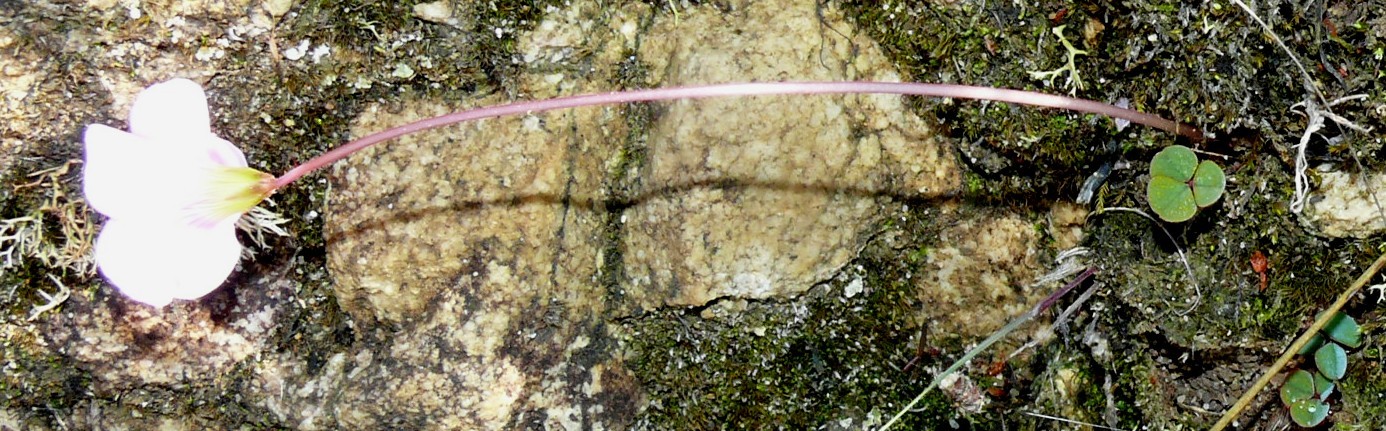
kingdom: Plantae
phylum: Tracheophyta
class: Magnoliopsida
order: Oxalidales
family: Oxalidaceae
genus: Oxalis
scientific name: Oxalis commutata
